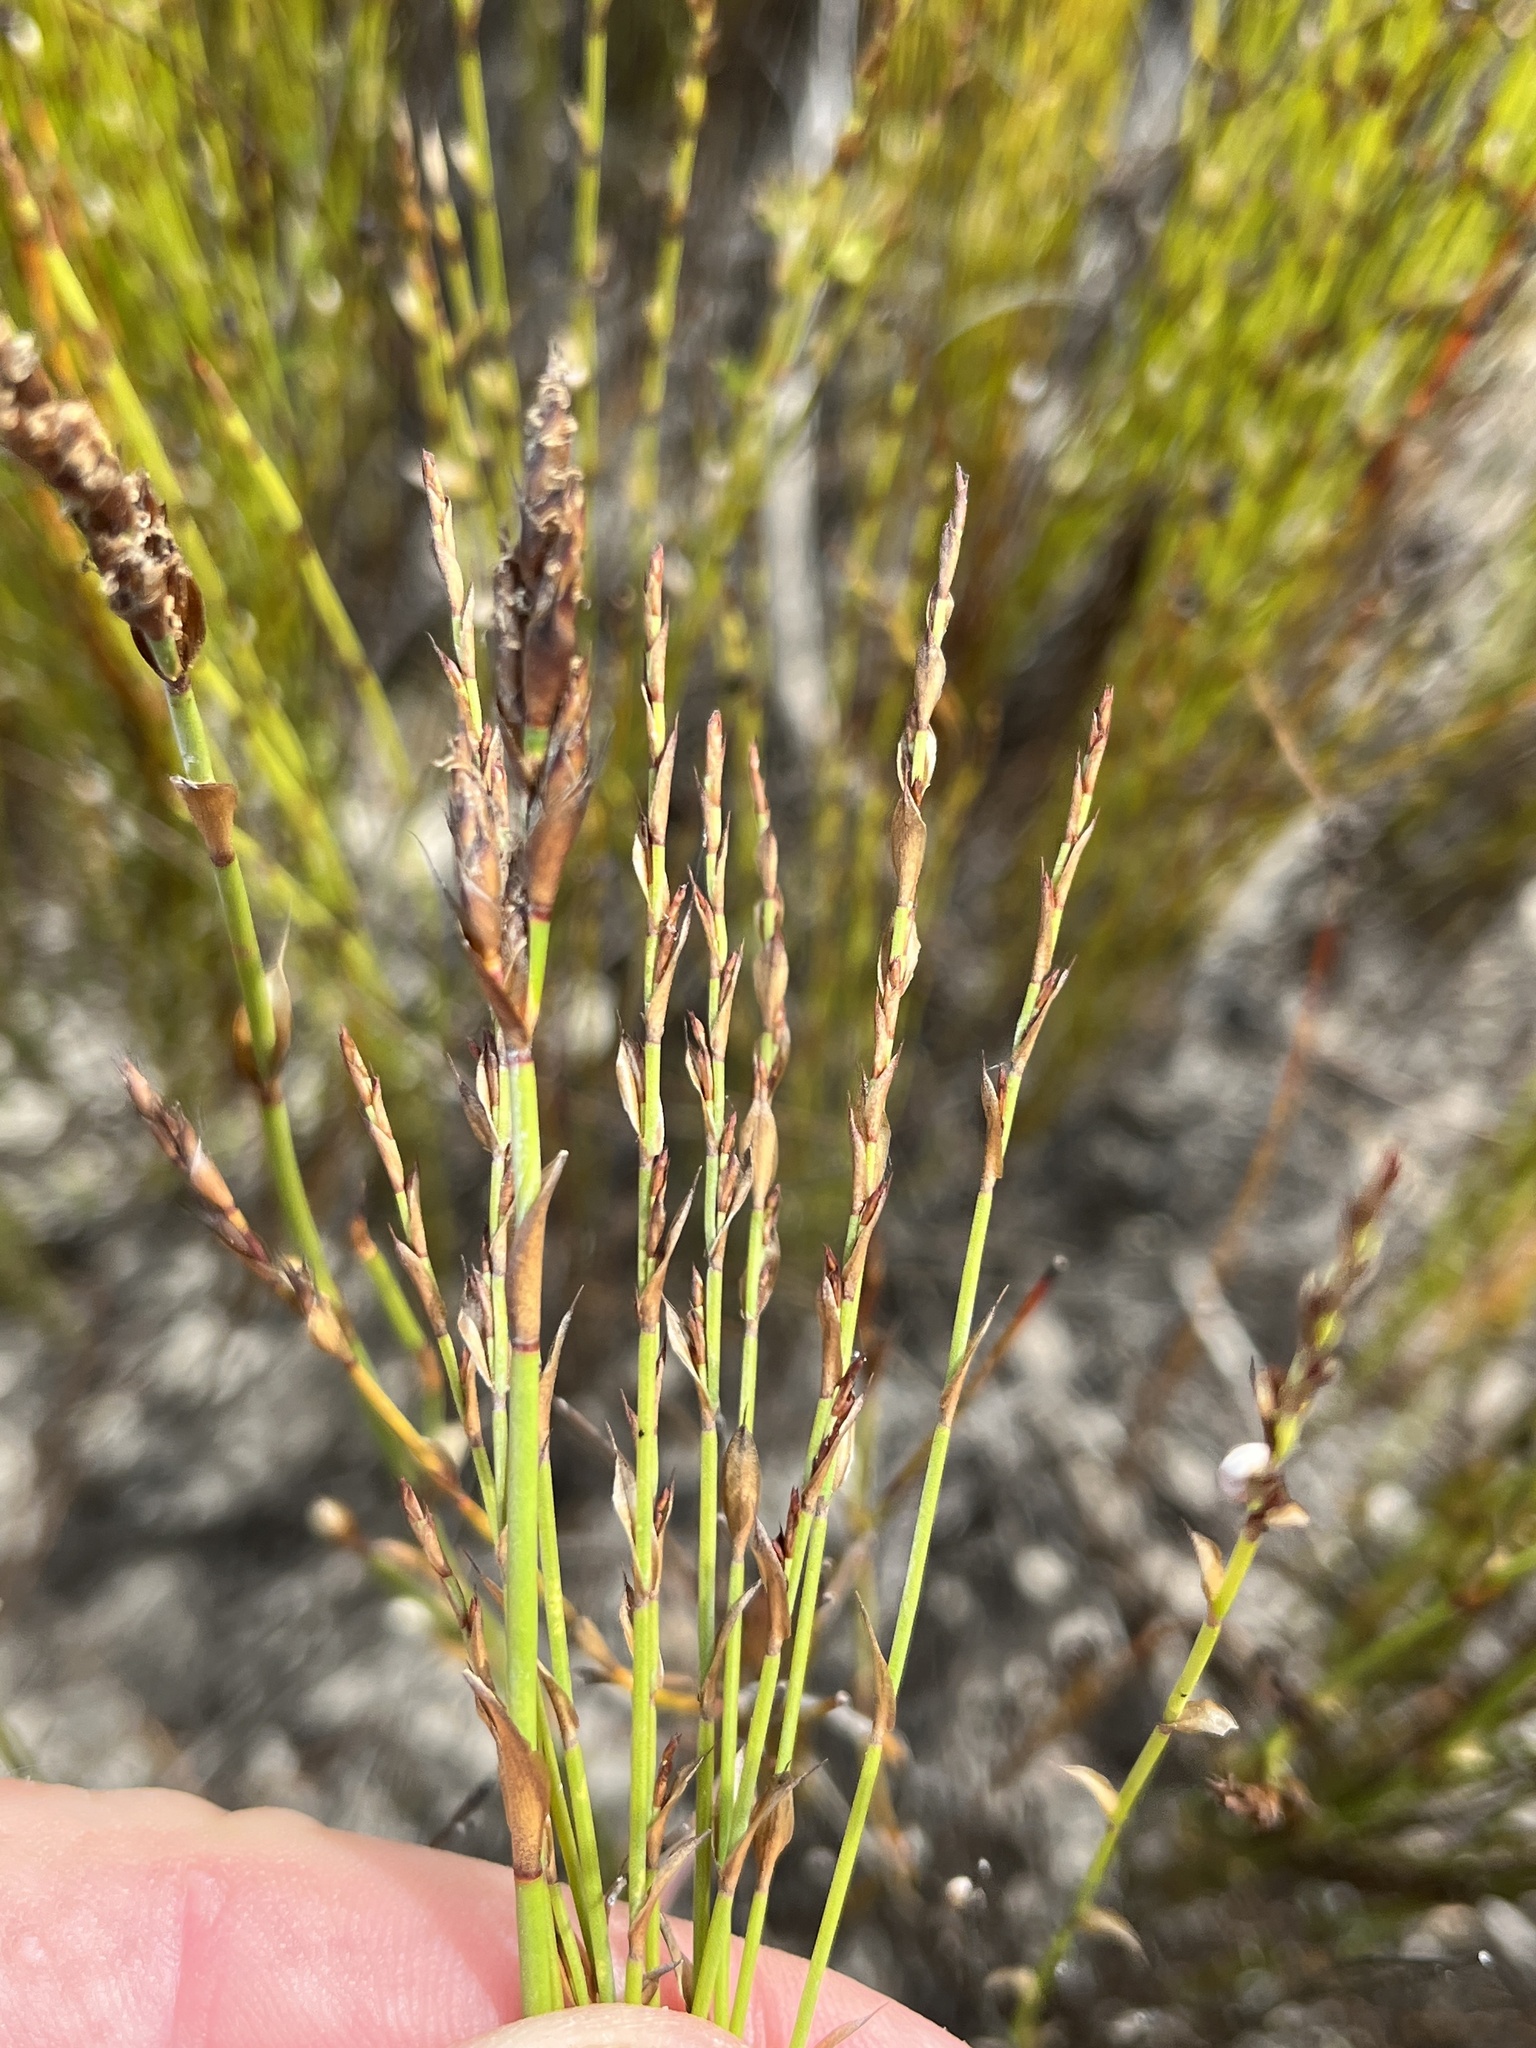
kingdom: Plantae
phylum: Tracheophyta
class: Liliopsida
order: Poales
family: Restionaceae
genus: Elegia
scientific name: Elegia microcarpa
